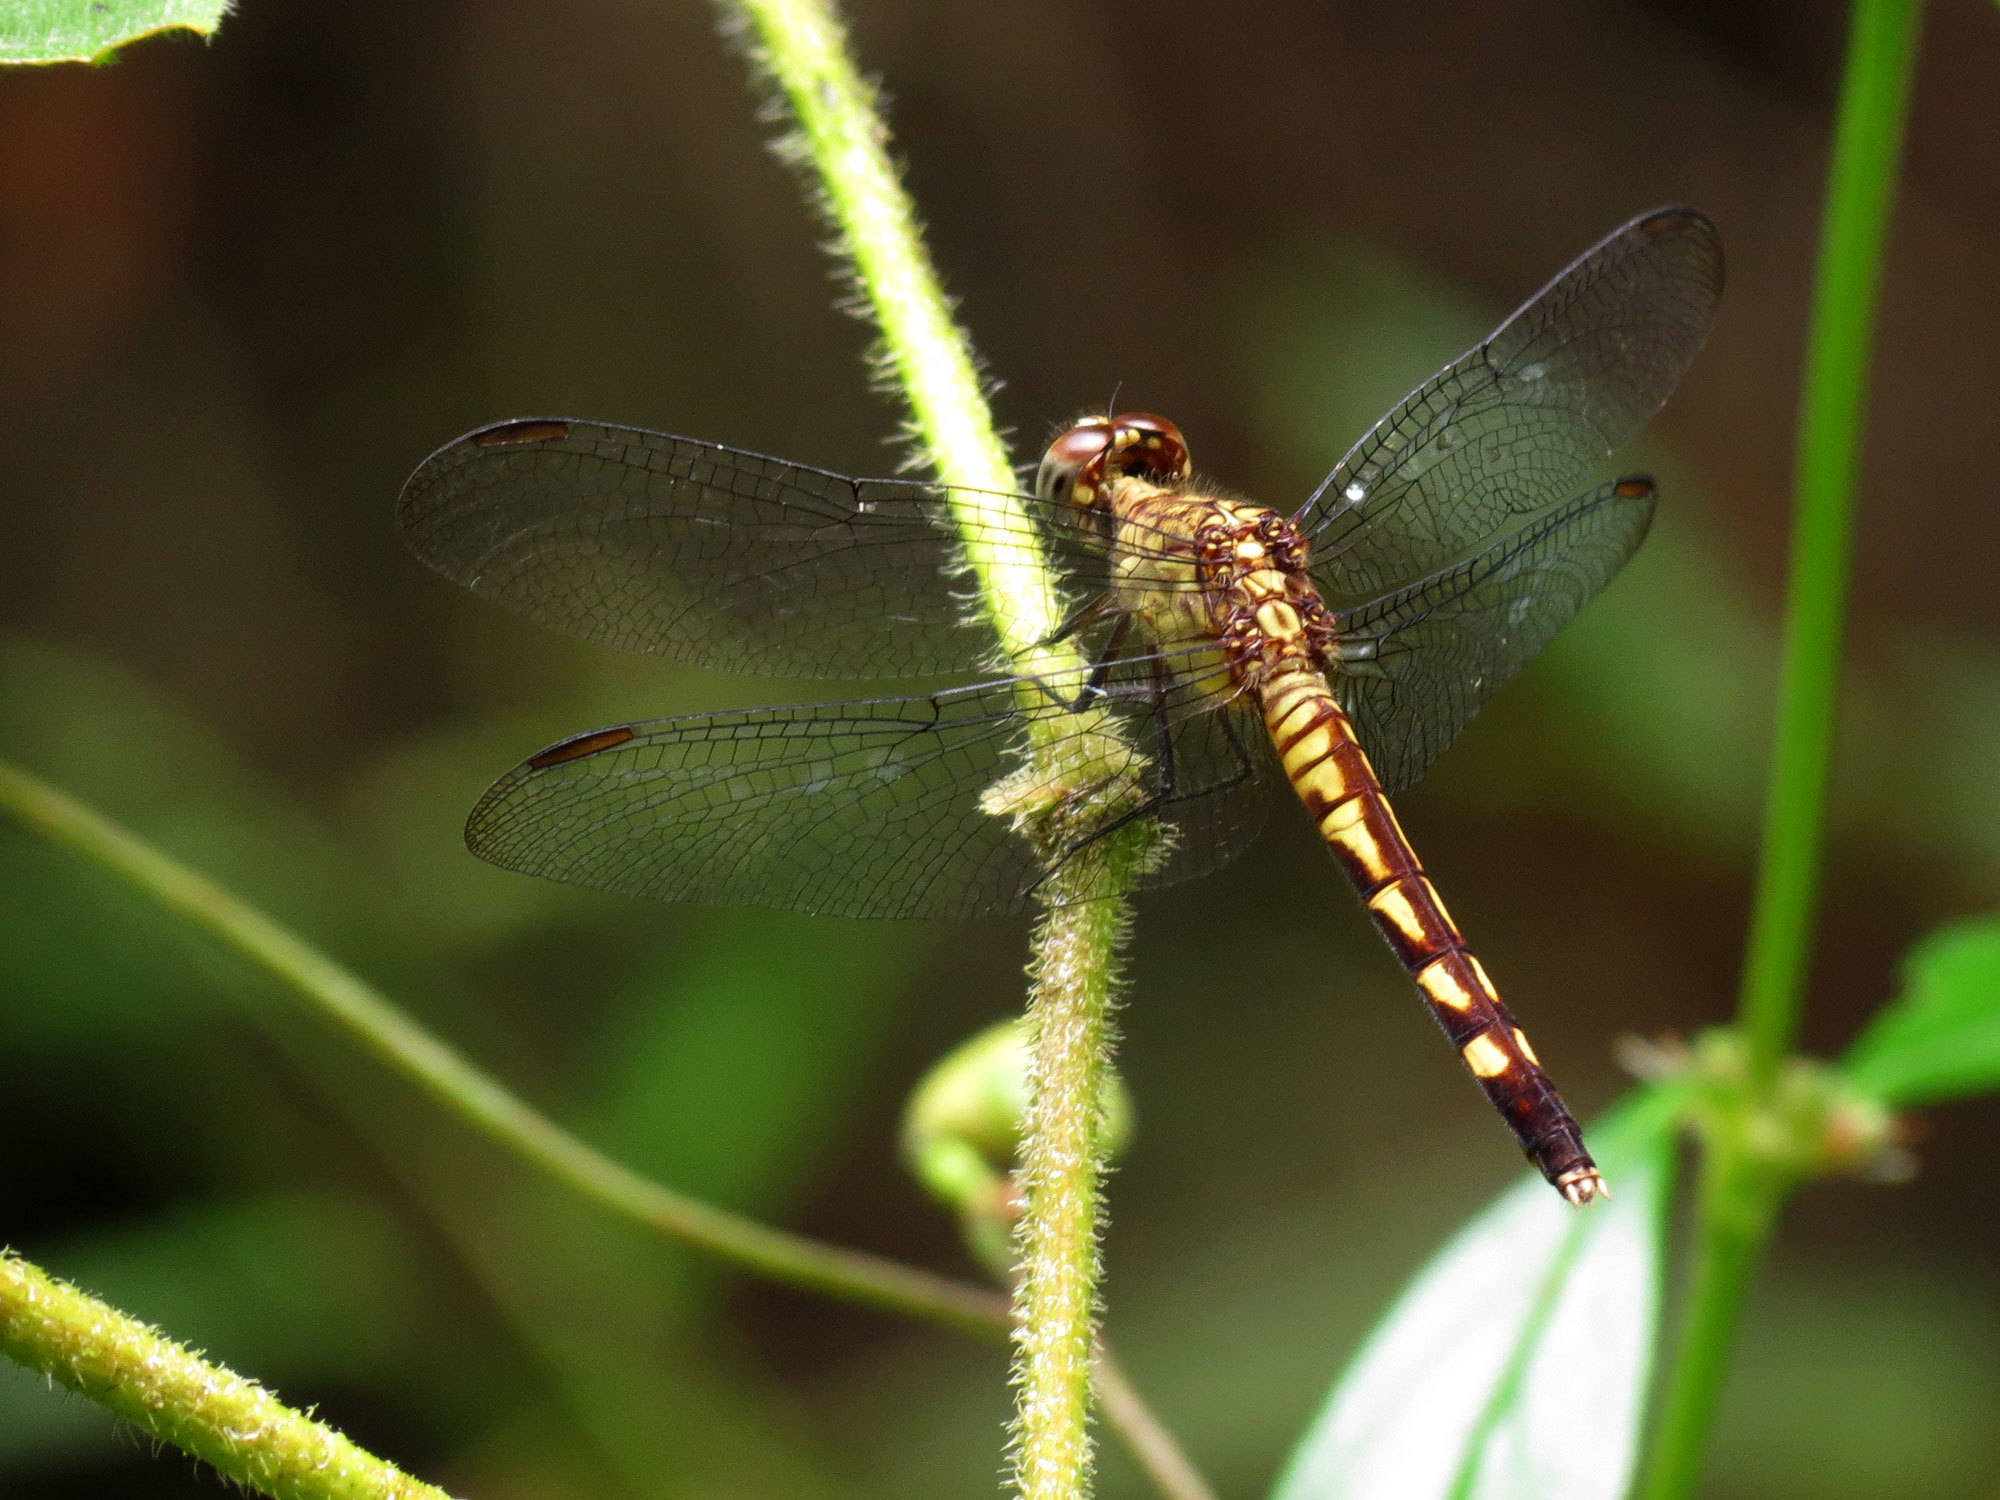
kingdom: Animalia
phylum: Arthropoda
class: Insecta
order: Odonata
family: Libellulidae
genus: Erythrodiplax
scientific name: Erythrodiplax fervida
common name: Red-mantled dragonlet
